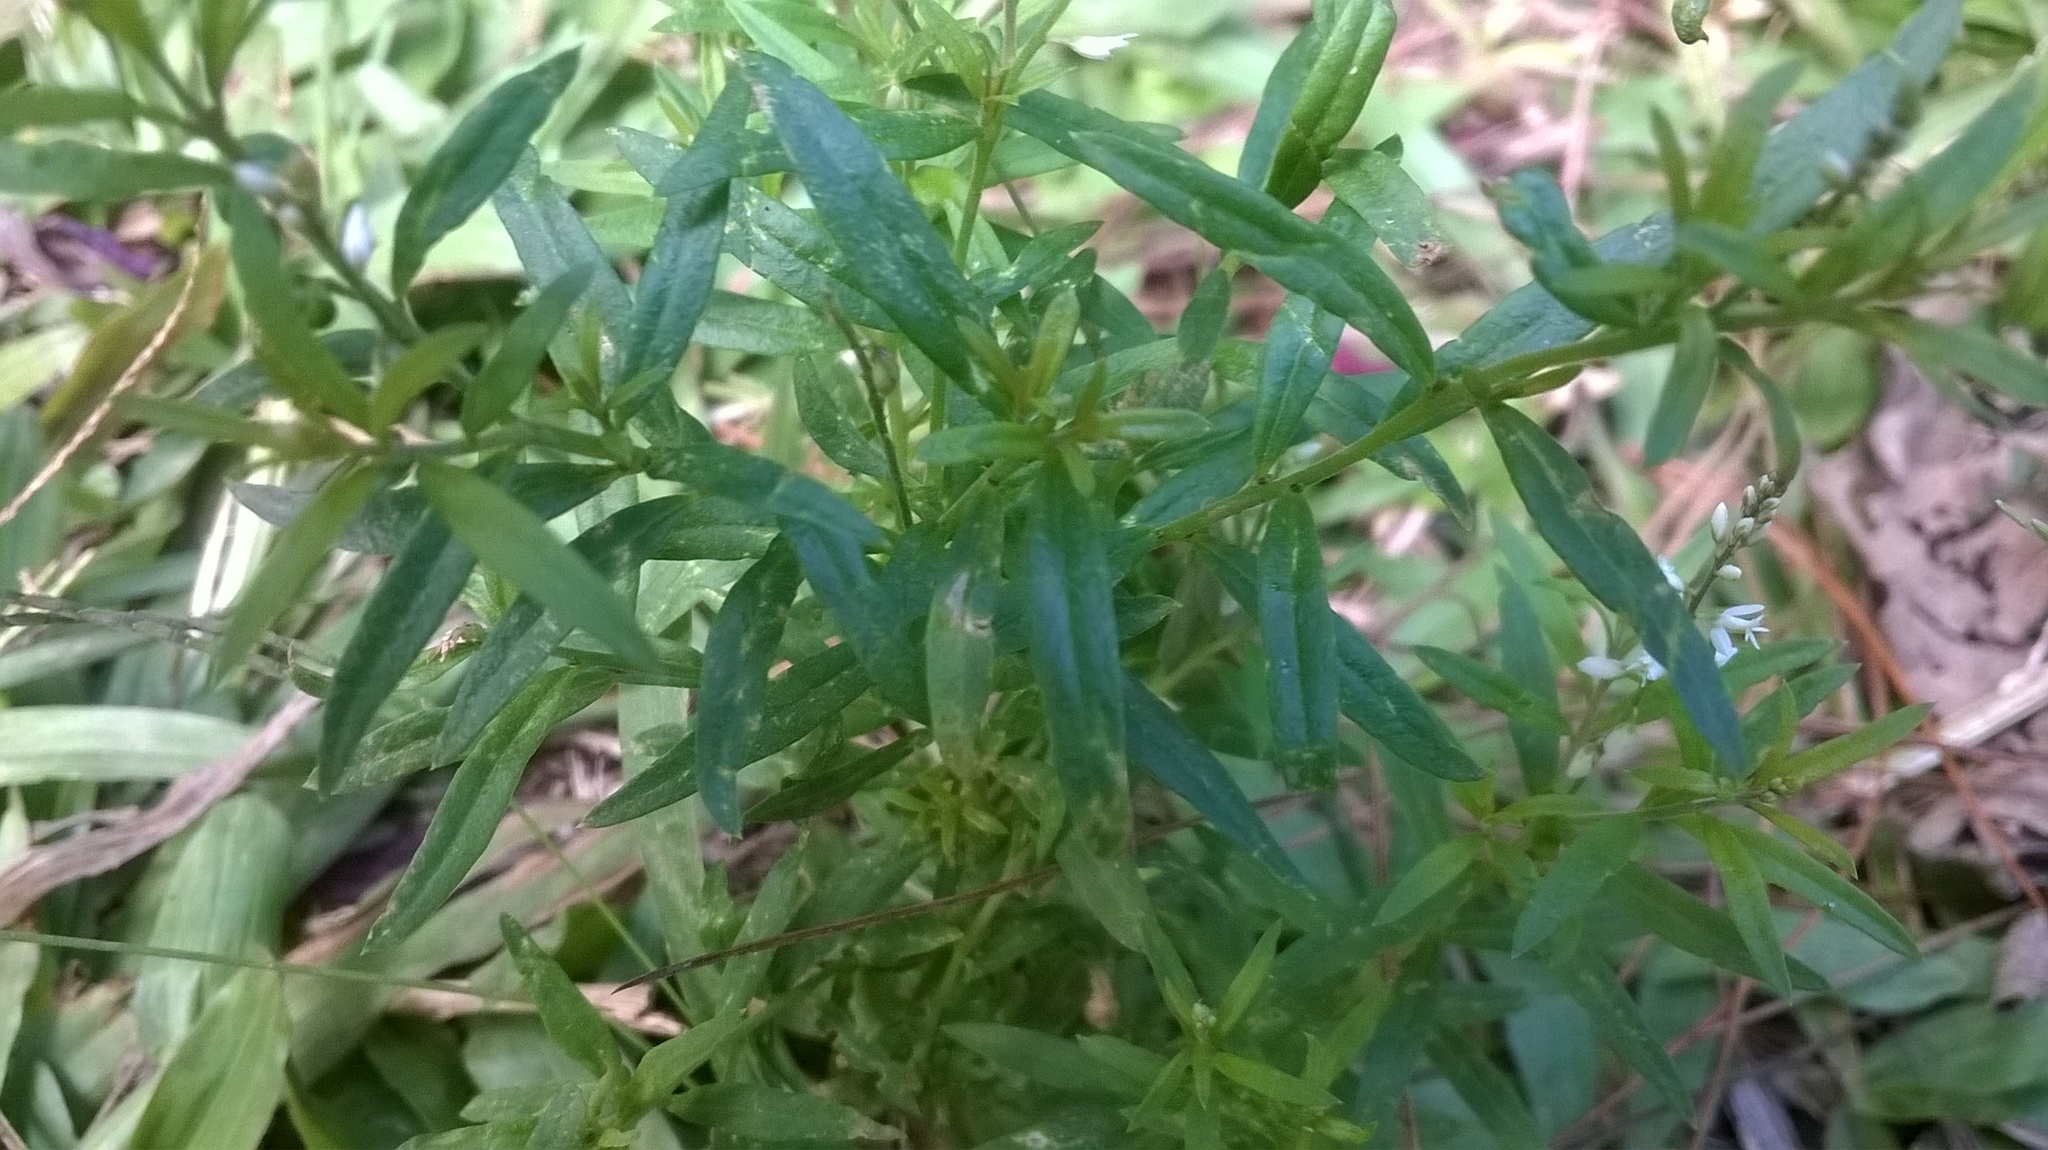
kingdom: Plantae
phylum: Tracheophyta
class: Magnoliopsida
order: Fabales
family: Polygalaceae
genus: Polygala
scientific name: Polygala paniculata
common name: Orosne
